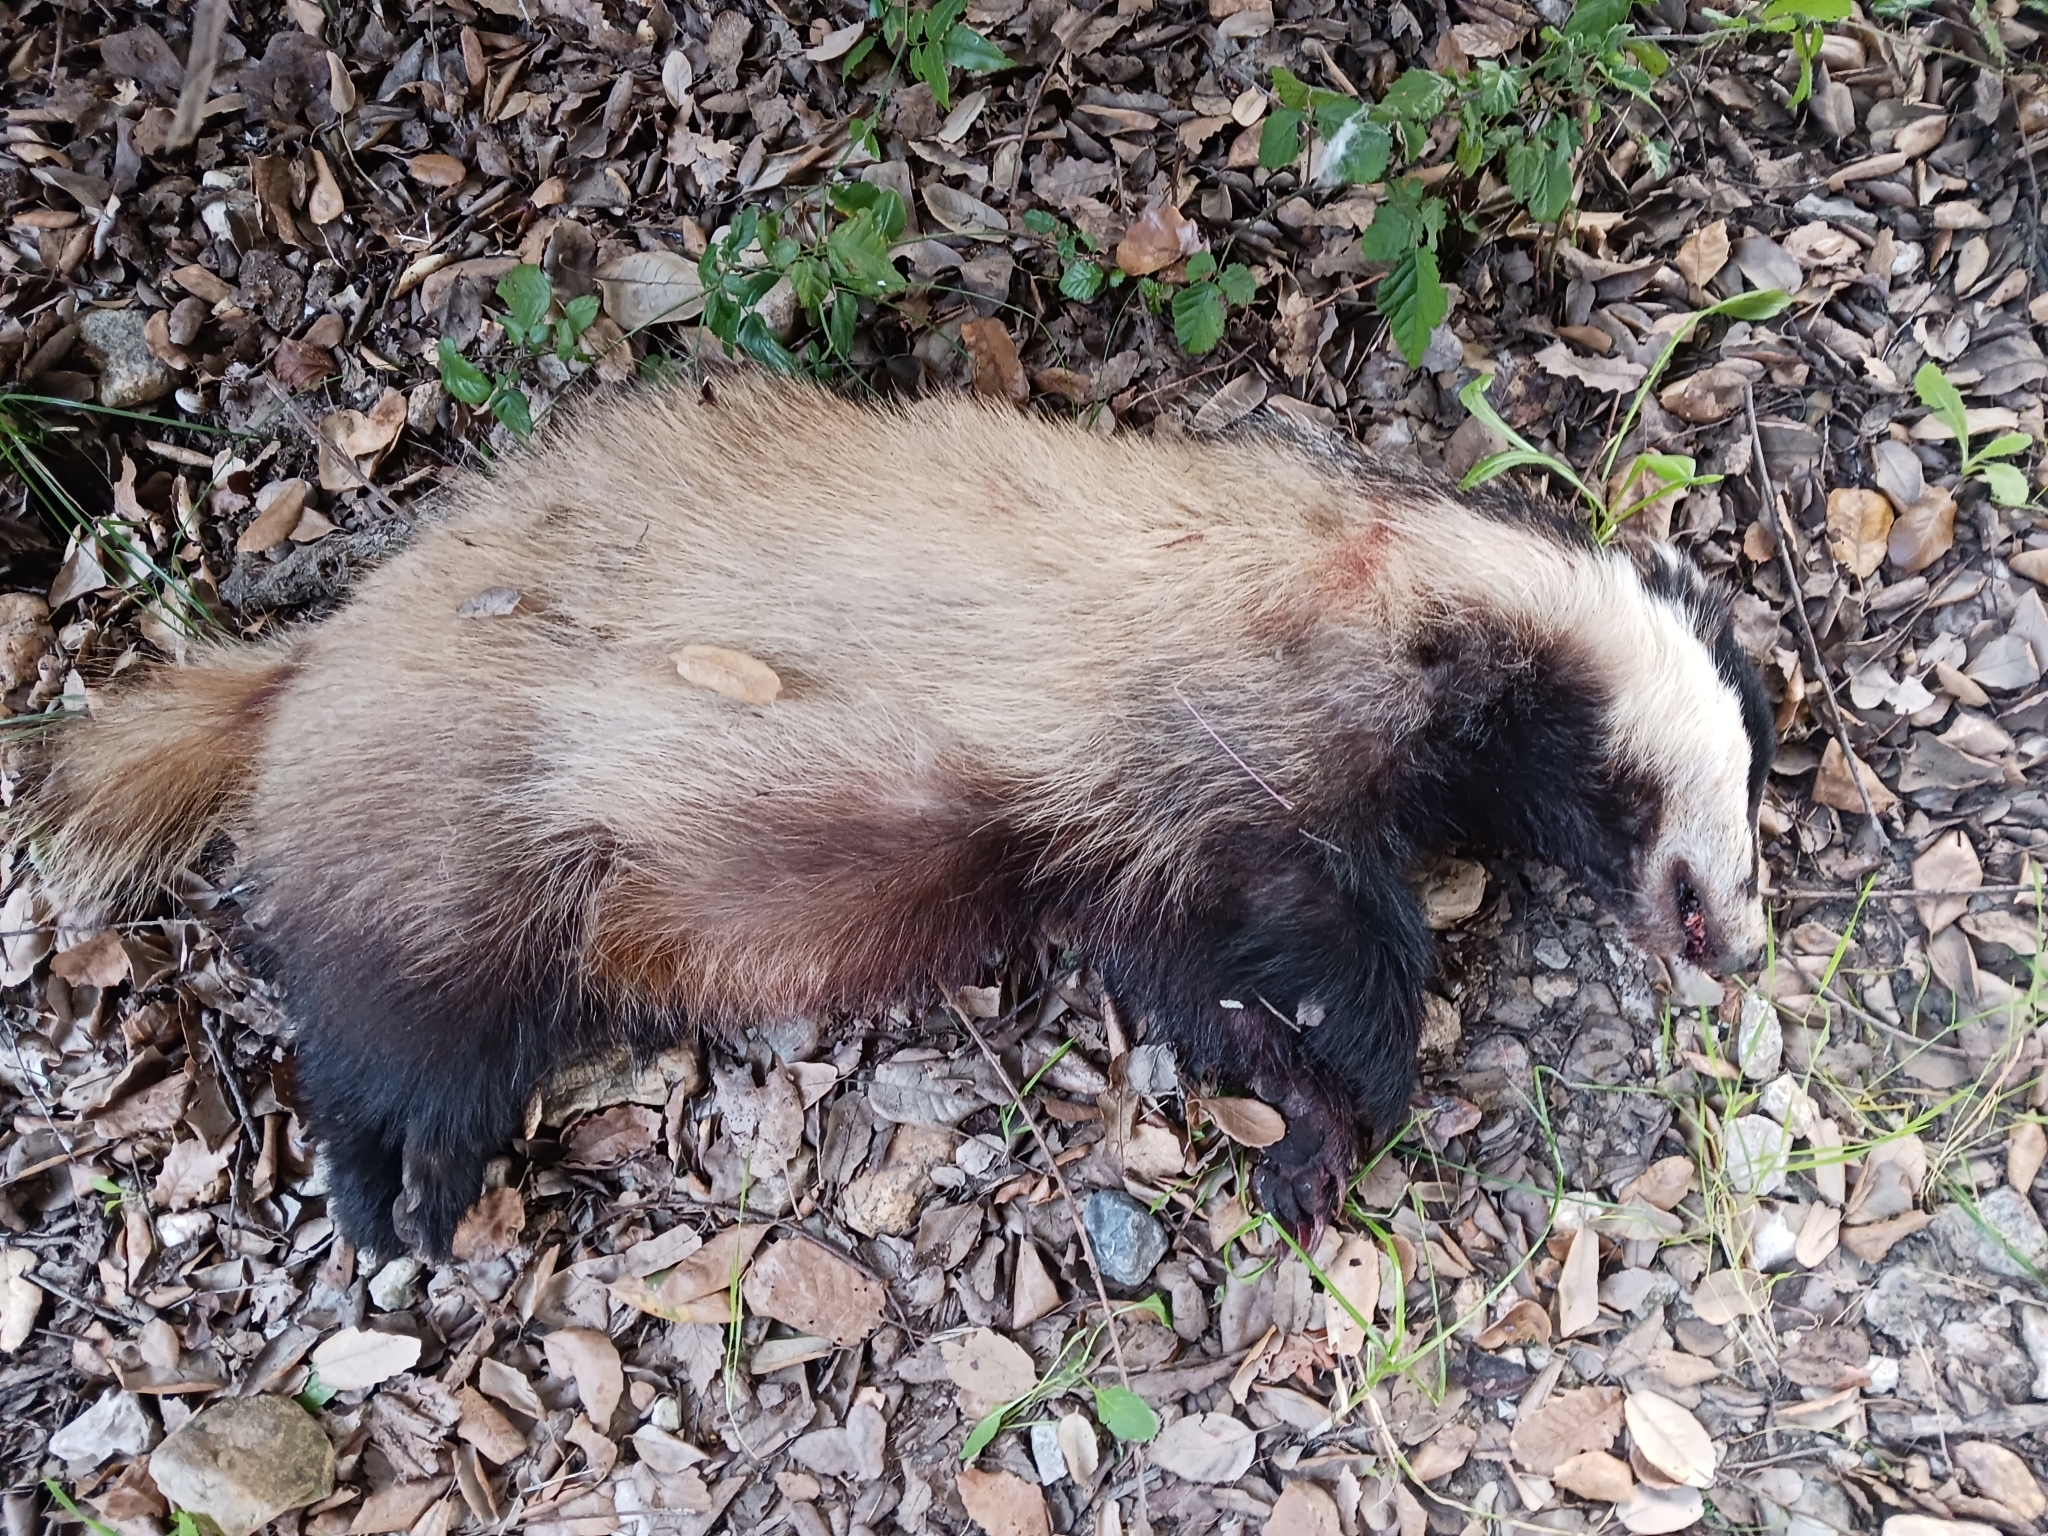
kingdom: Animalia
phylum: Chordata
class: Mammalia
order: Carnivora
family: Mustelidae
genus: Meles
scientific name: Meles meles
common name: Eurasian badger
